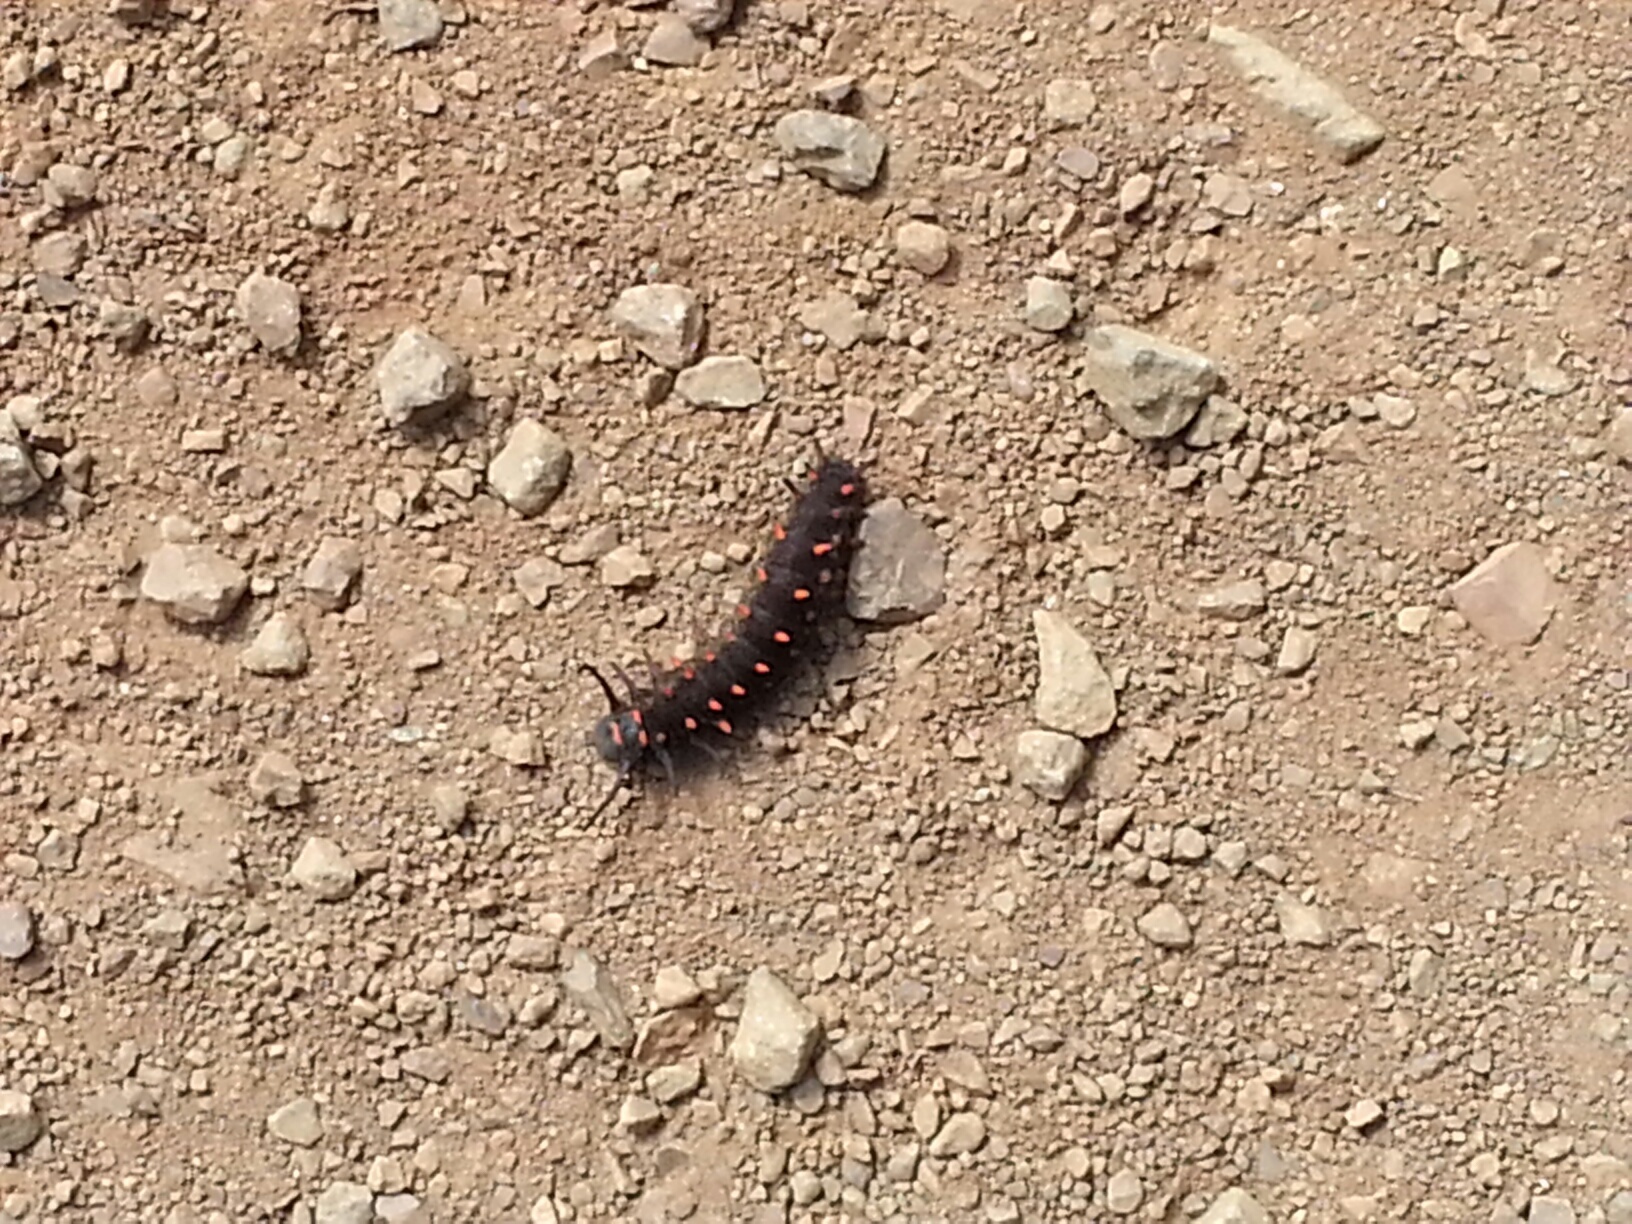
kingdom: Animalia
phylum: Arthropoda
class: Insecta
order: Lepidoptera
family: Papilionidae
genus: Battus
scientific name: Battus philenor
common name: Pipevine swallowtail
